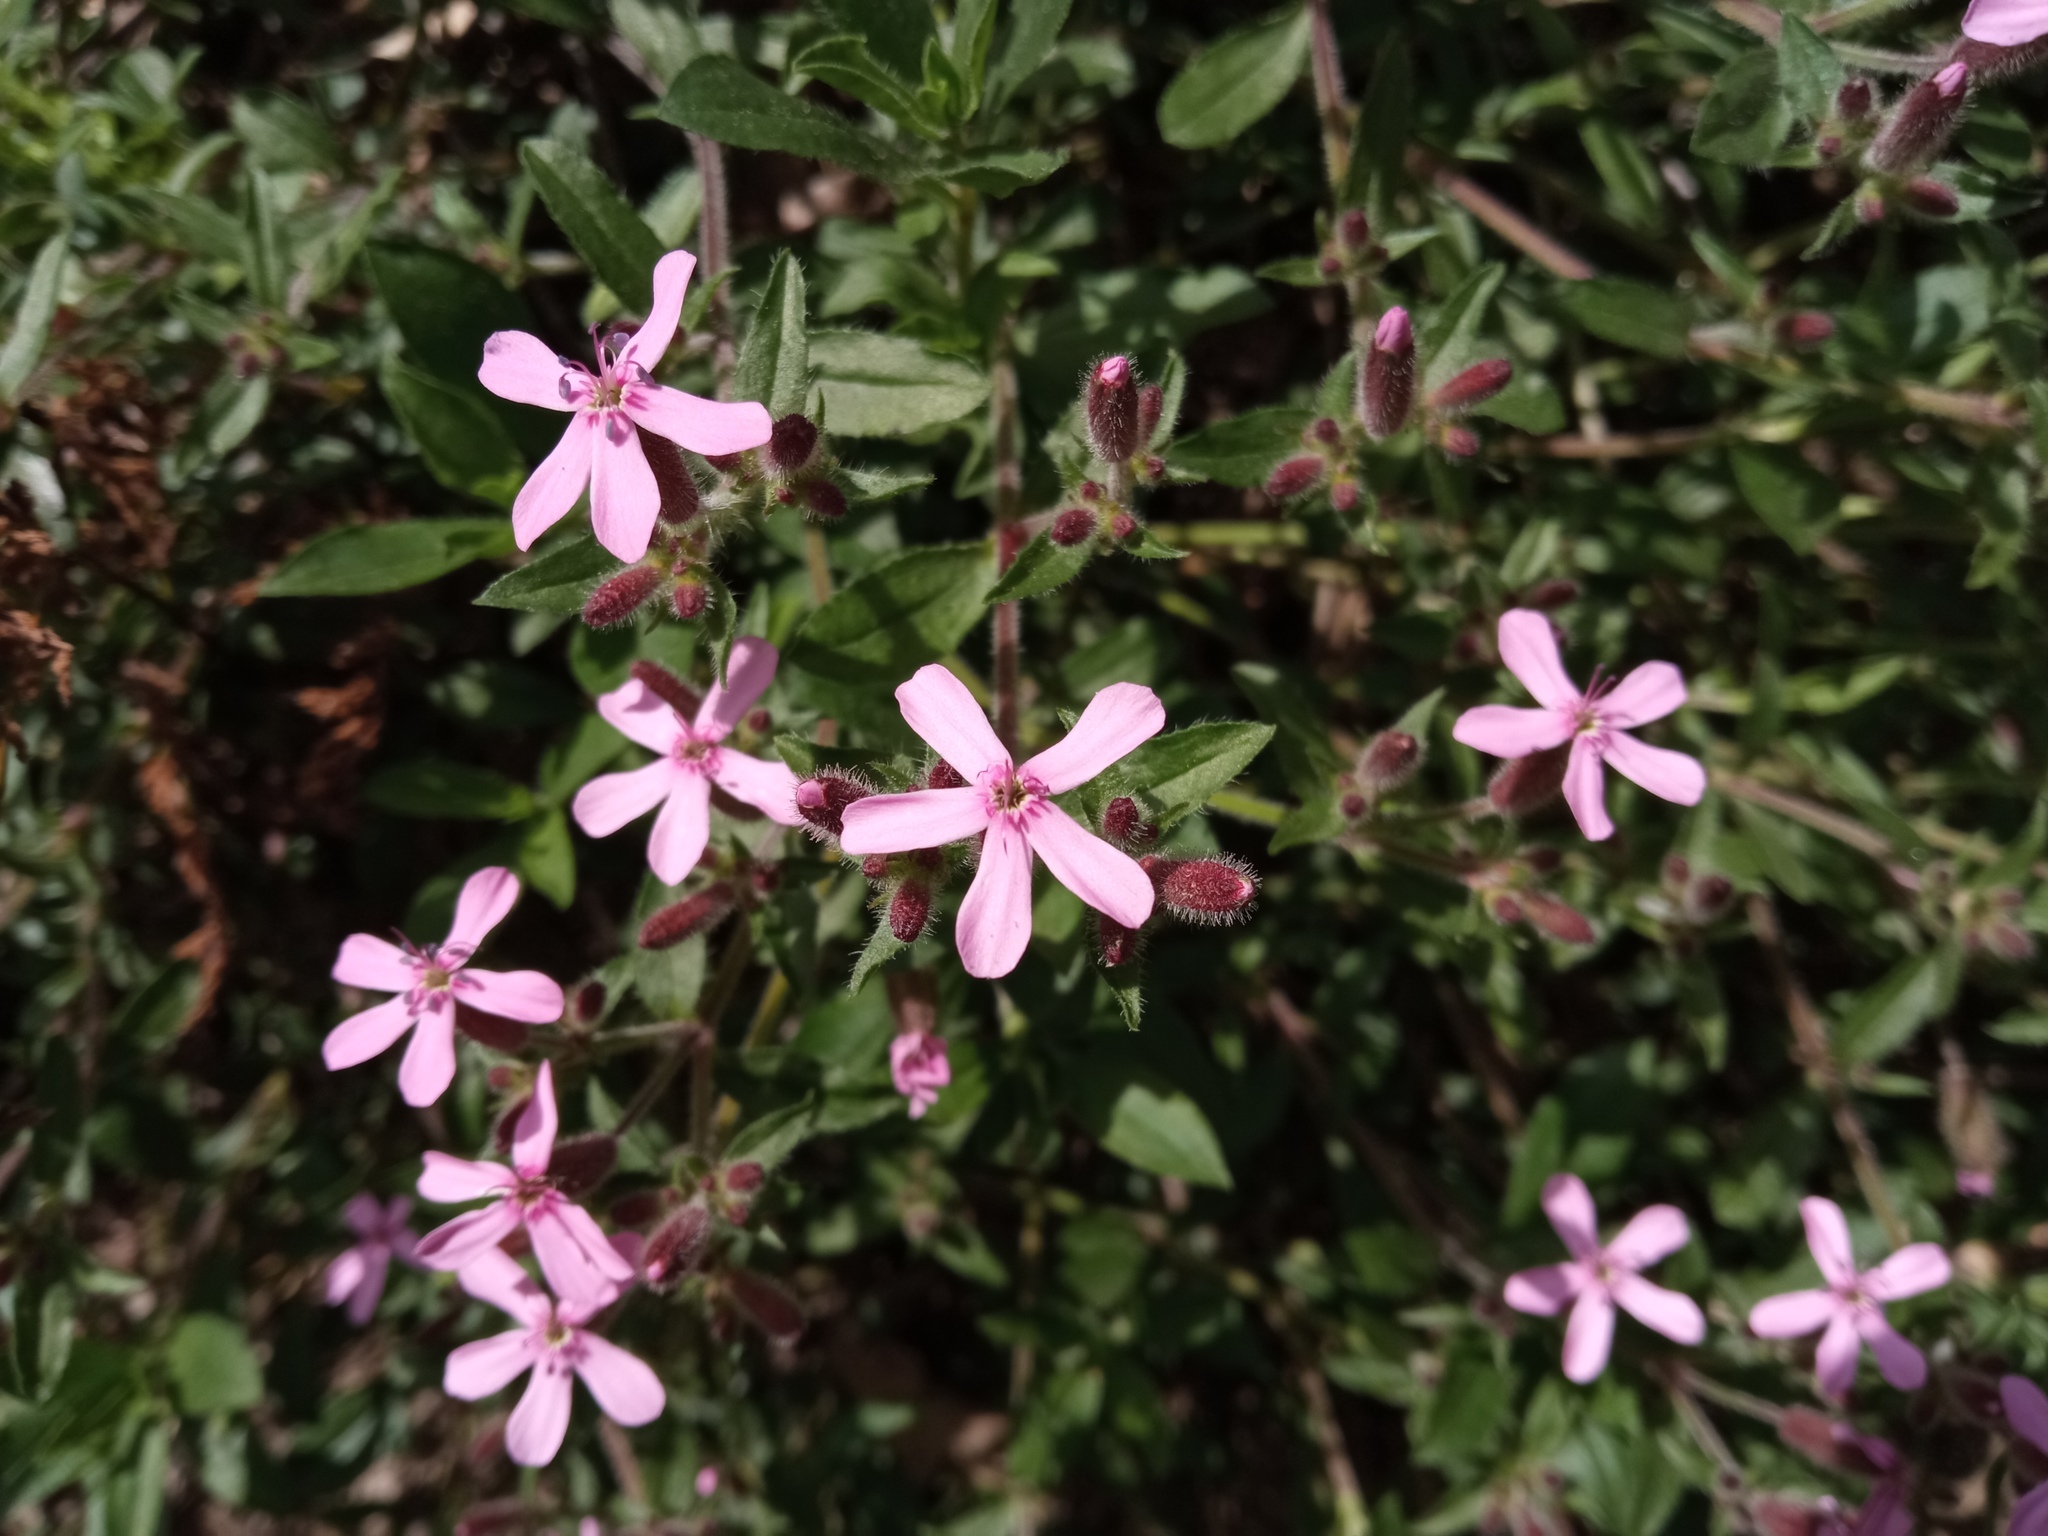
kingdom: Plantae
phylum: Tracheophyta
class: Magnoliopsida
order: Caryophyllales
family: Caryophyllaceae
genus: Saponaria
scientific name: Saponaria ocymoides
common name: Rock soapwort
